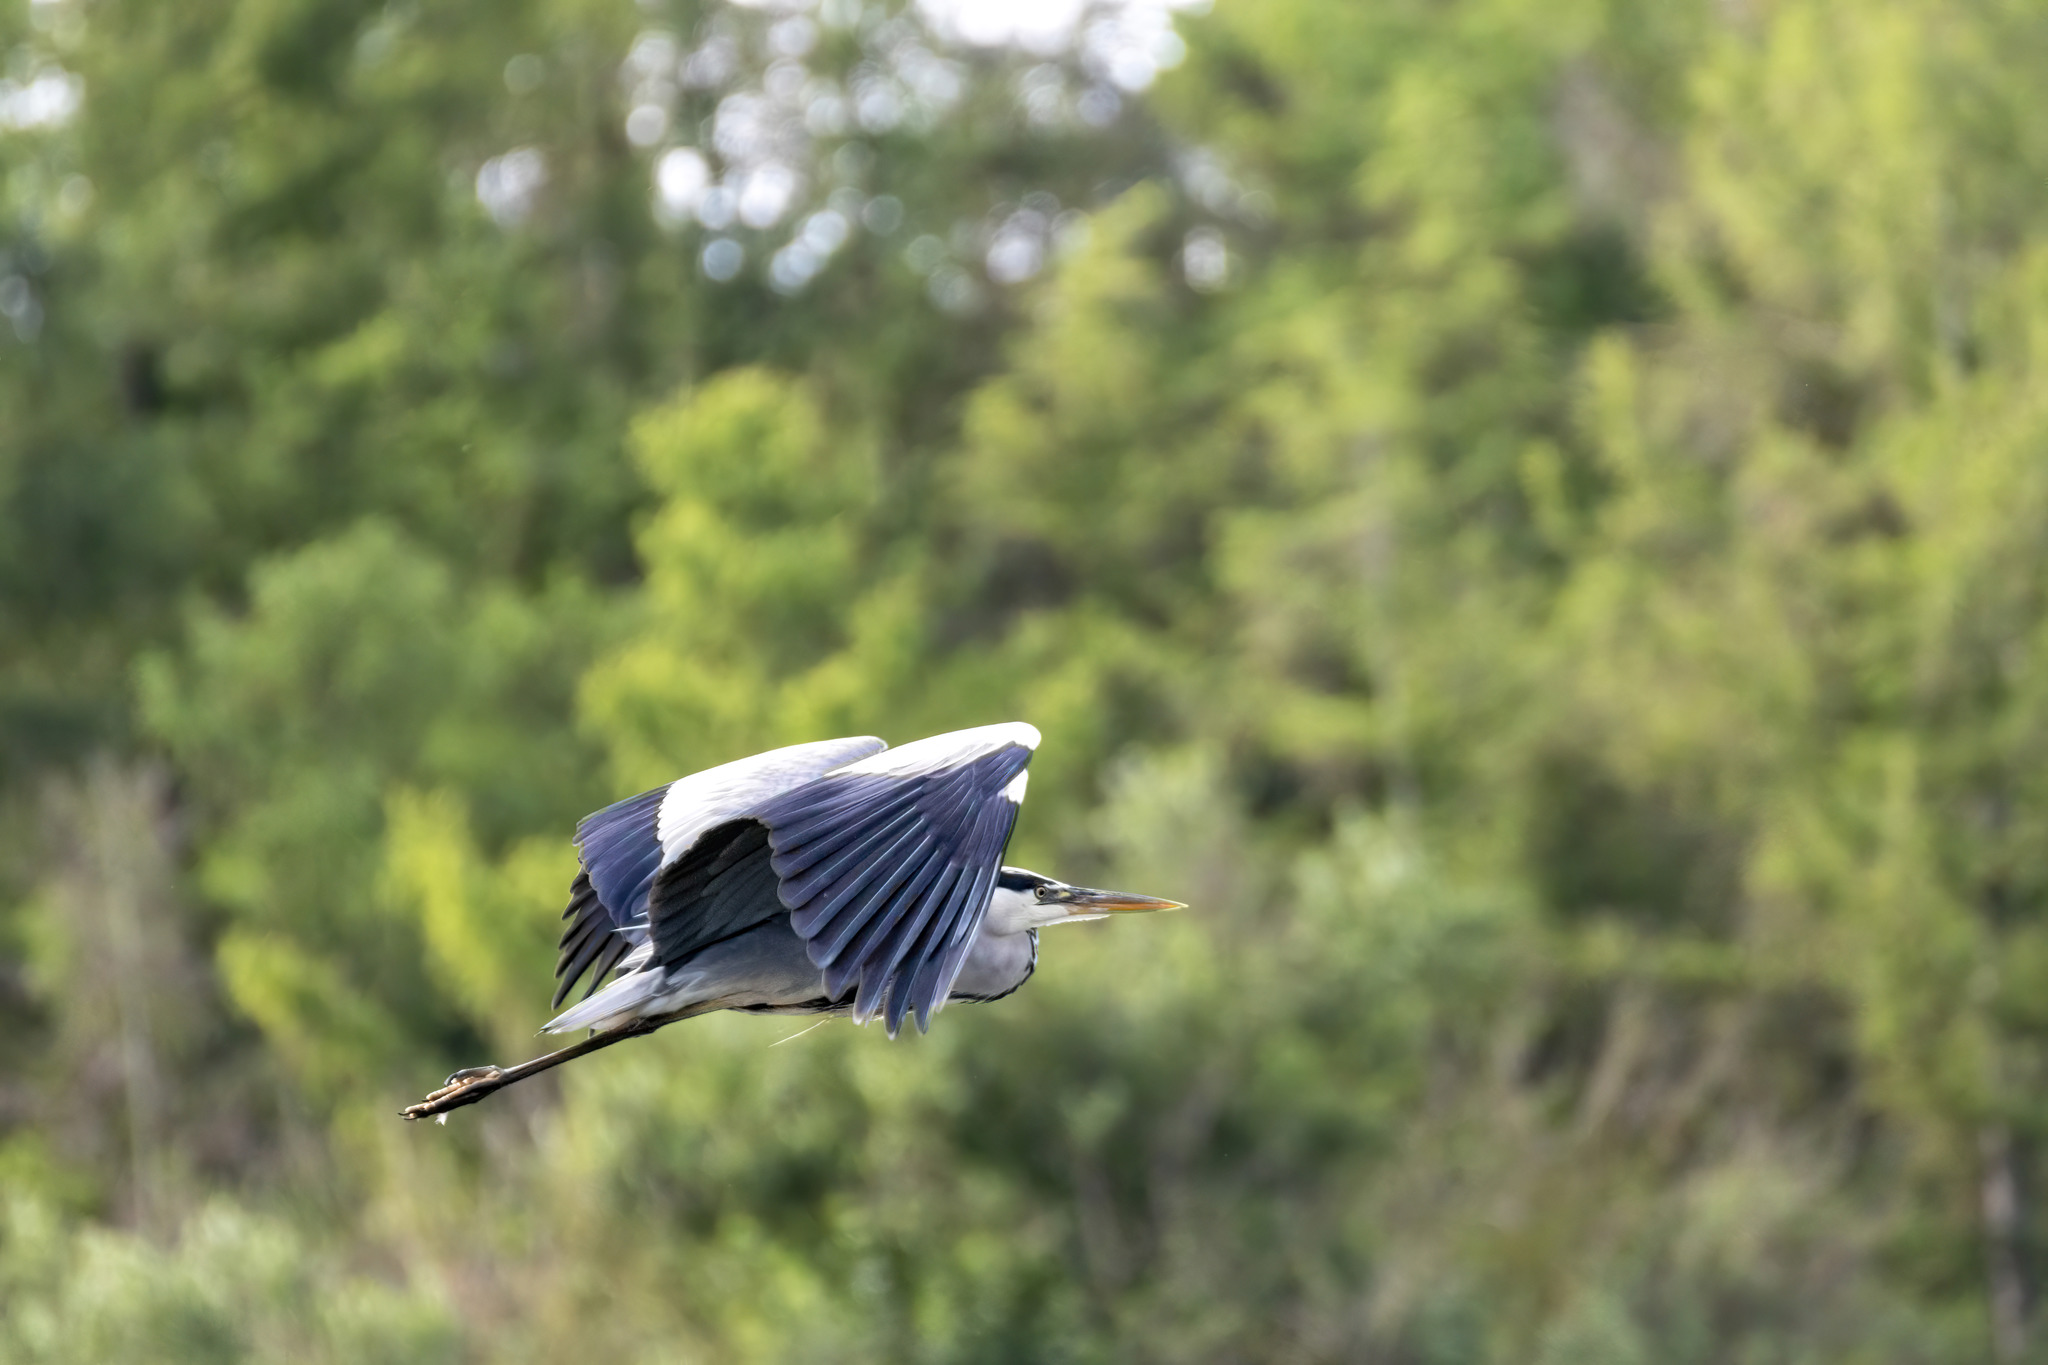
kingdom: Animalia
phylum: Chordata
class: Aves
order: Pelecaniformes
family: Ardeidae
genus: Ardea
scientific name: Ardea cinerea
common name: Grey heron
